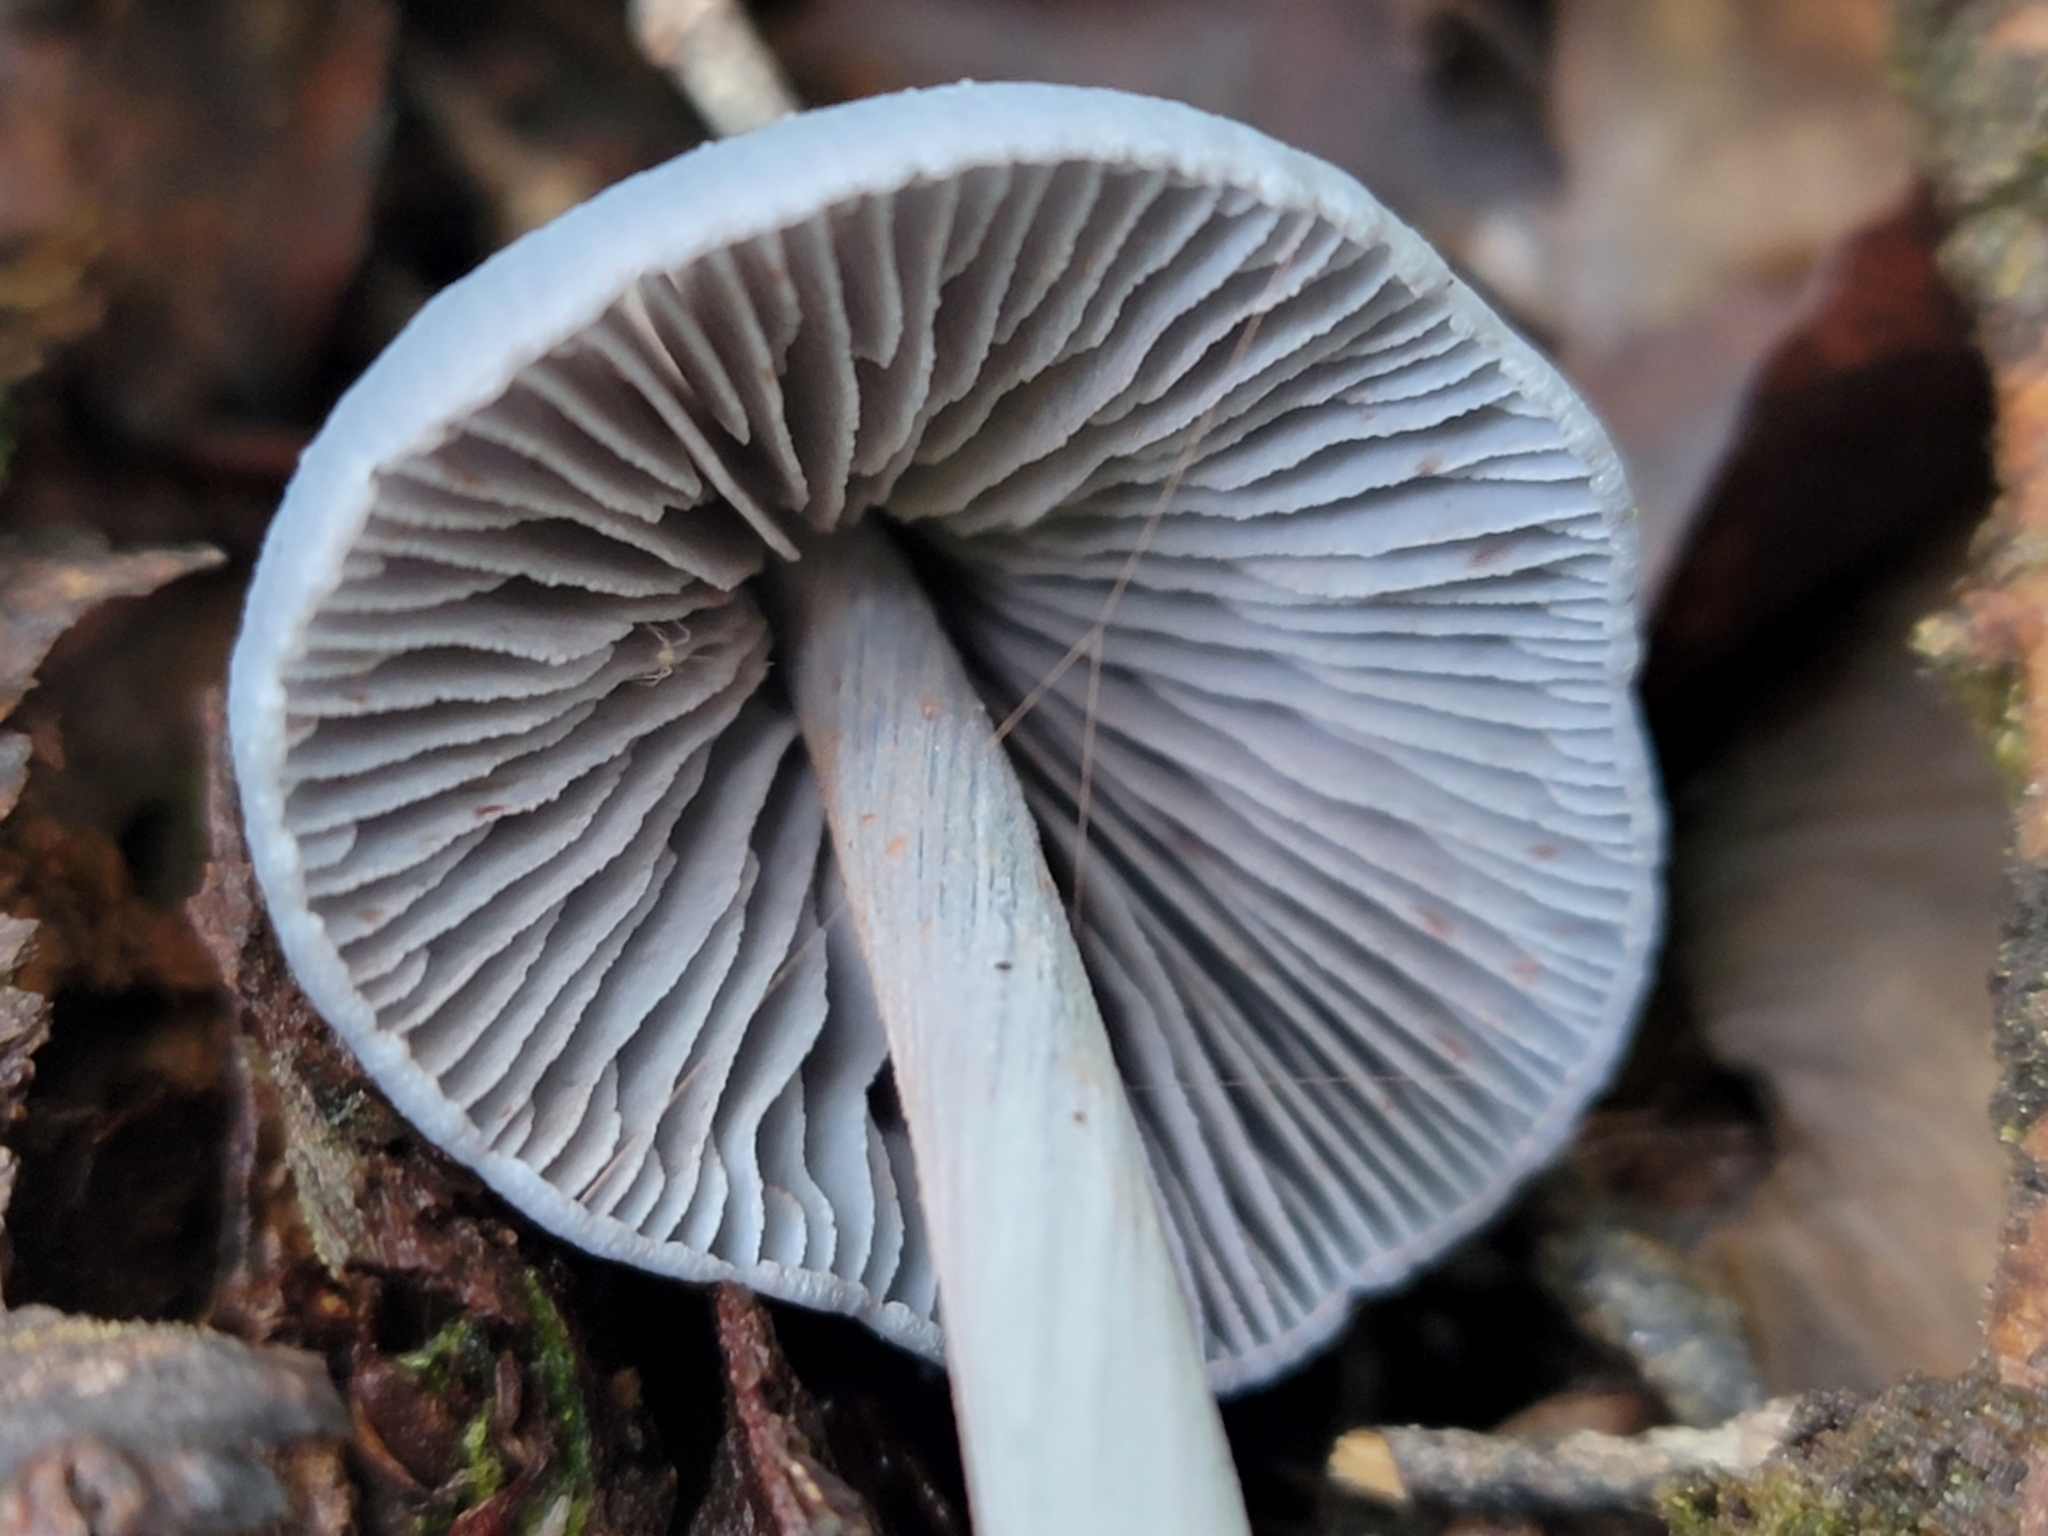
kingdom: Fungi
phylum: Basidiomycota
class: Agaricomycetes
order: Agaricales
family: Entolomataceae
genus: Entoloma
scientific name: Entoloma hochstetteri
